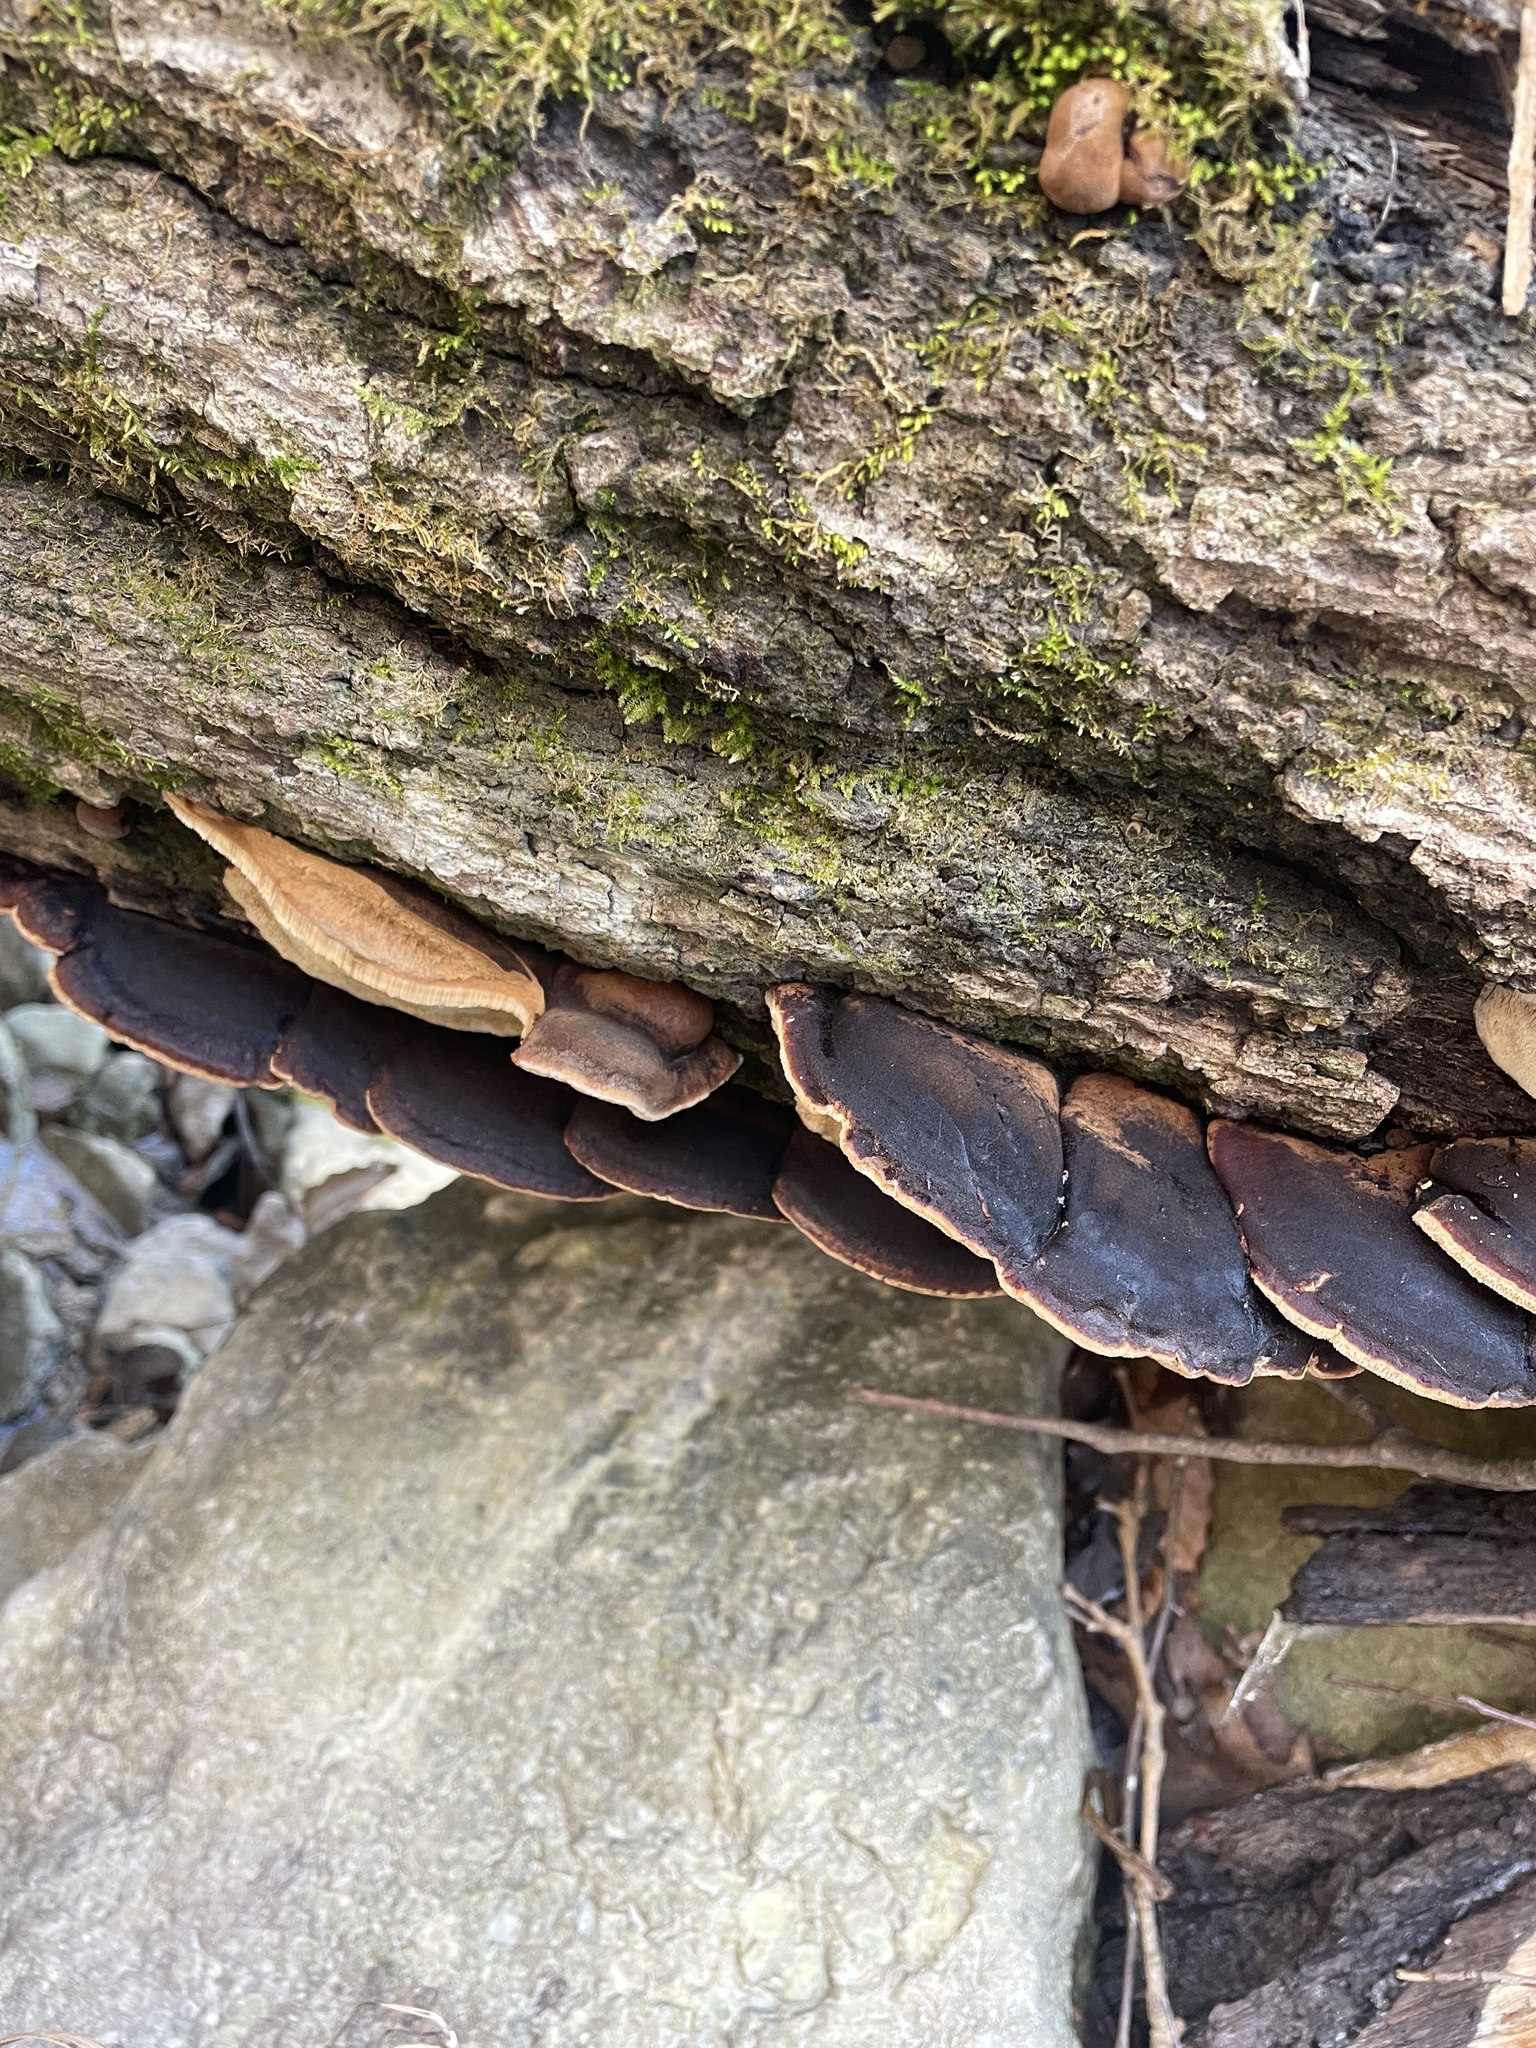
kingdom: Fungi
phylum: Basidiomycota
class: Agaricomycetes
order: Polyporales
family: Ischnodermataceae
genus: Ischnoderma
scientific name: Ischnoderma resinosum
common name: Resinous polypore
